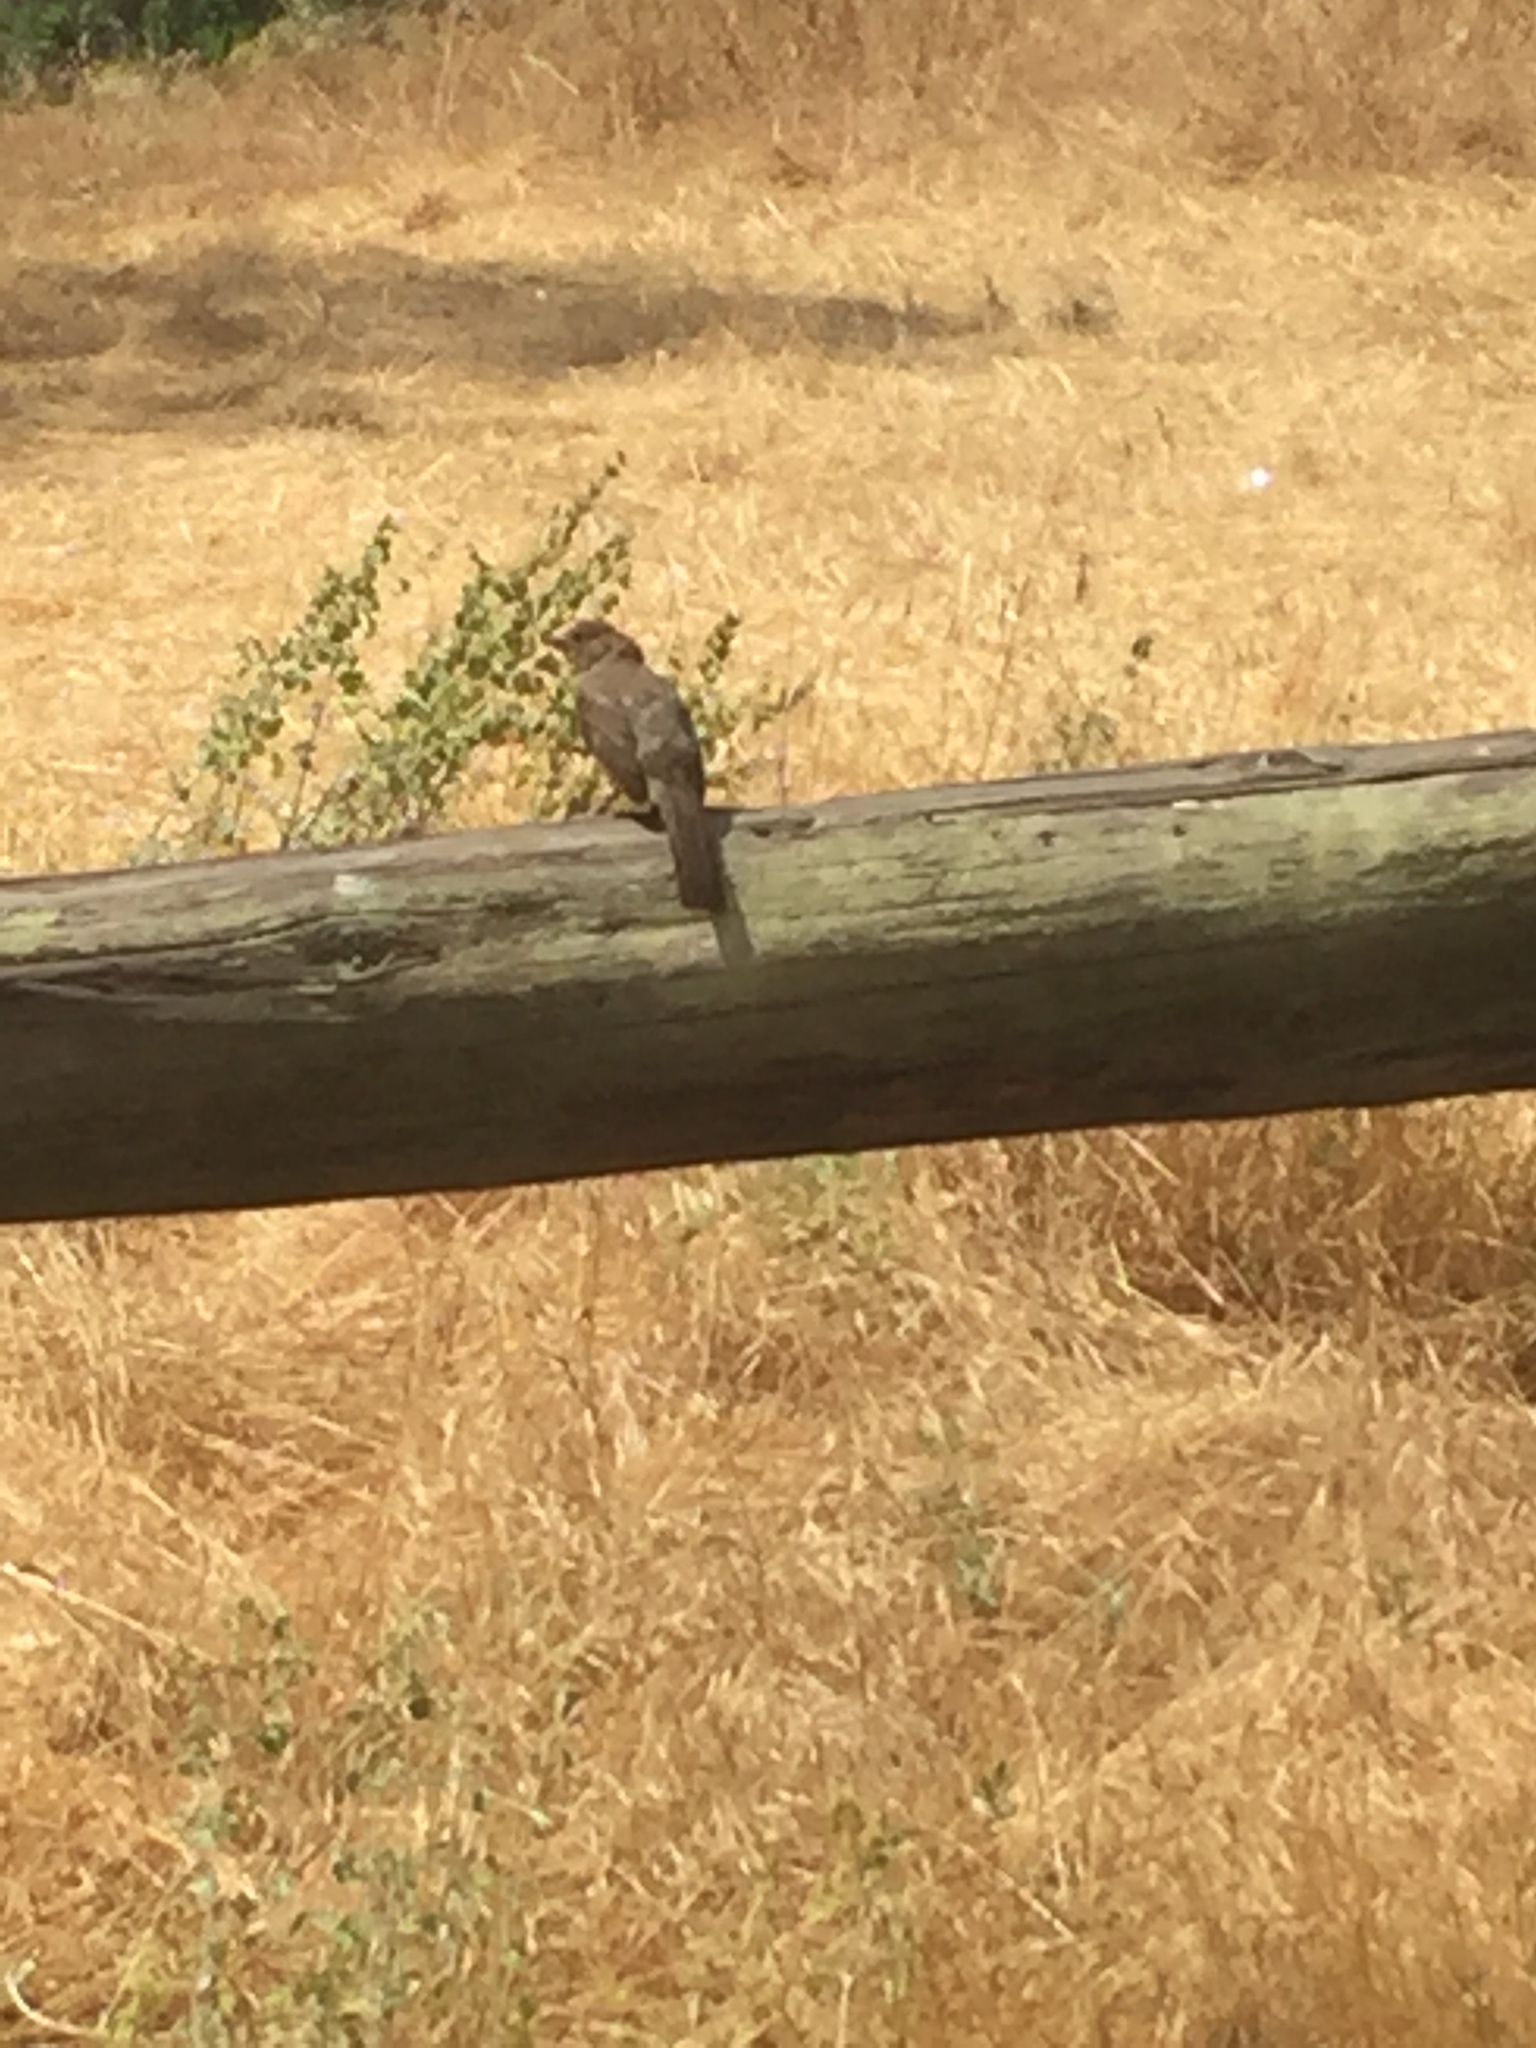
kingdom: Animalia
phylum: Chordata
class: Aves
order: Passeriformes
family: Passerellidae
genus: Melozone
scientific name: Melozone crissalis
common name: California towhee
